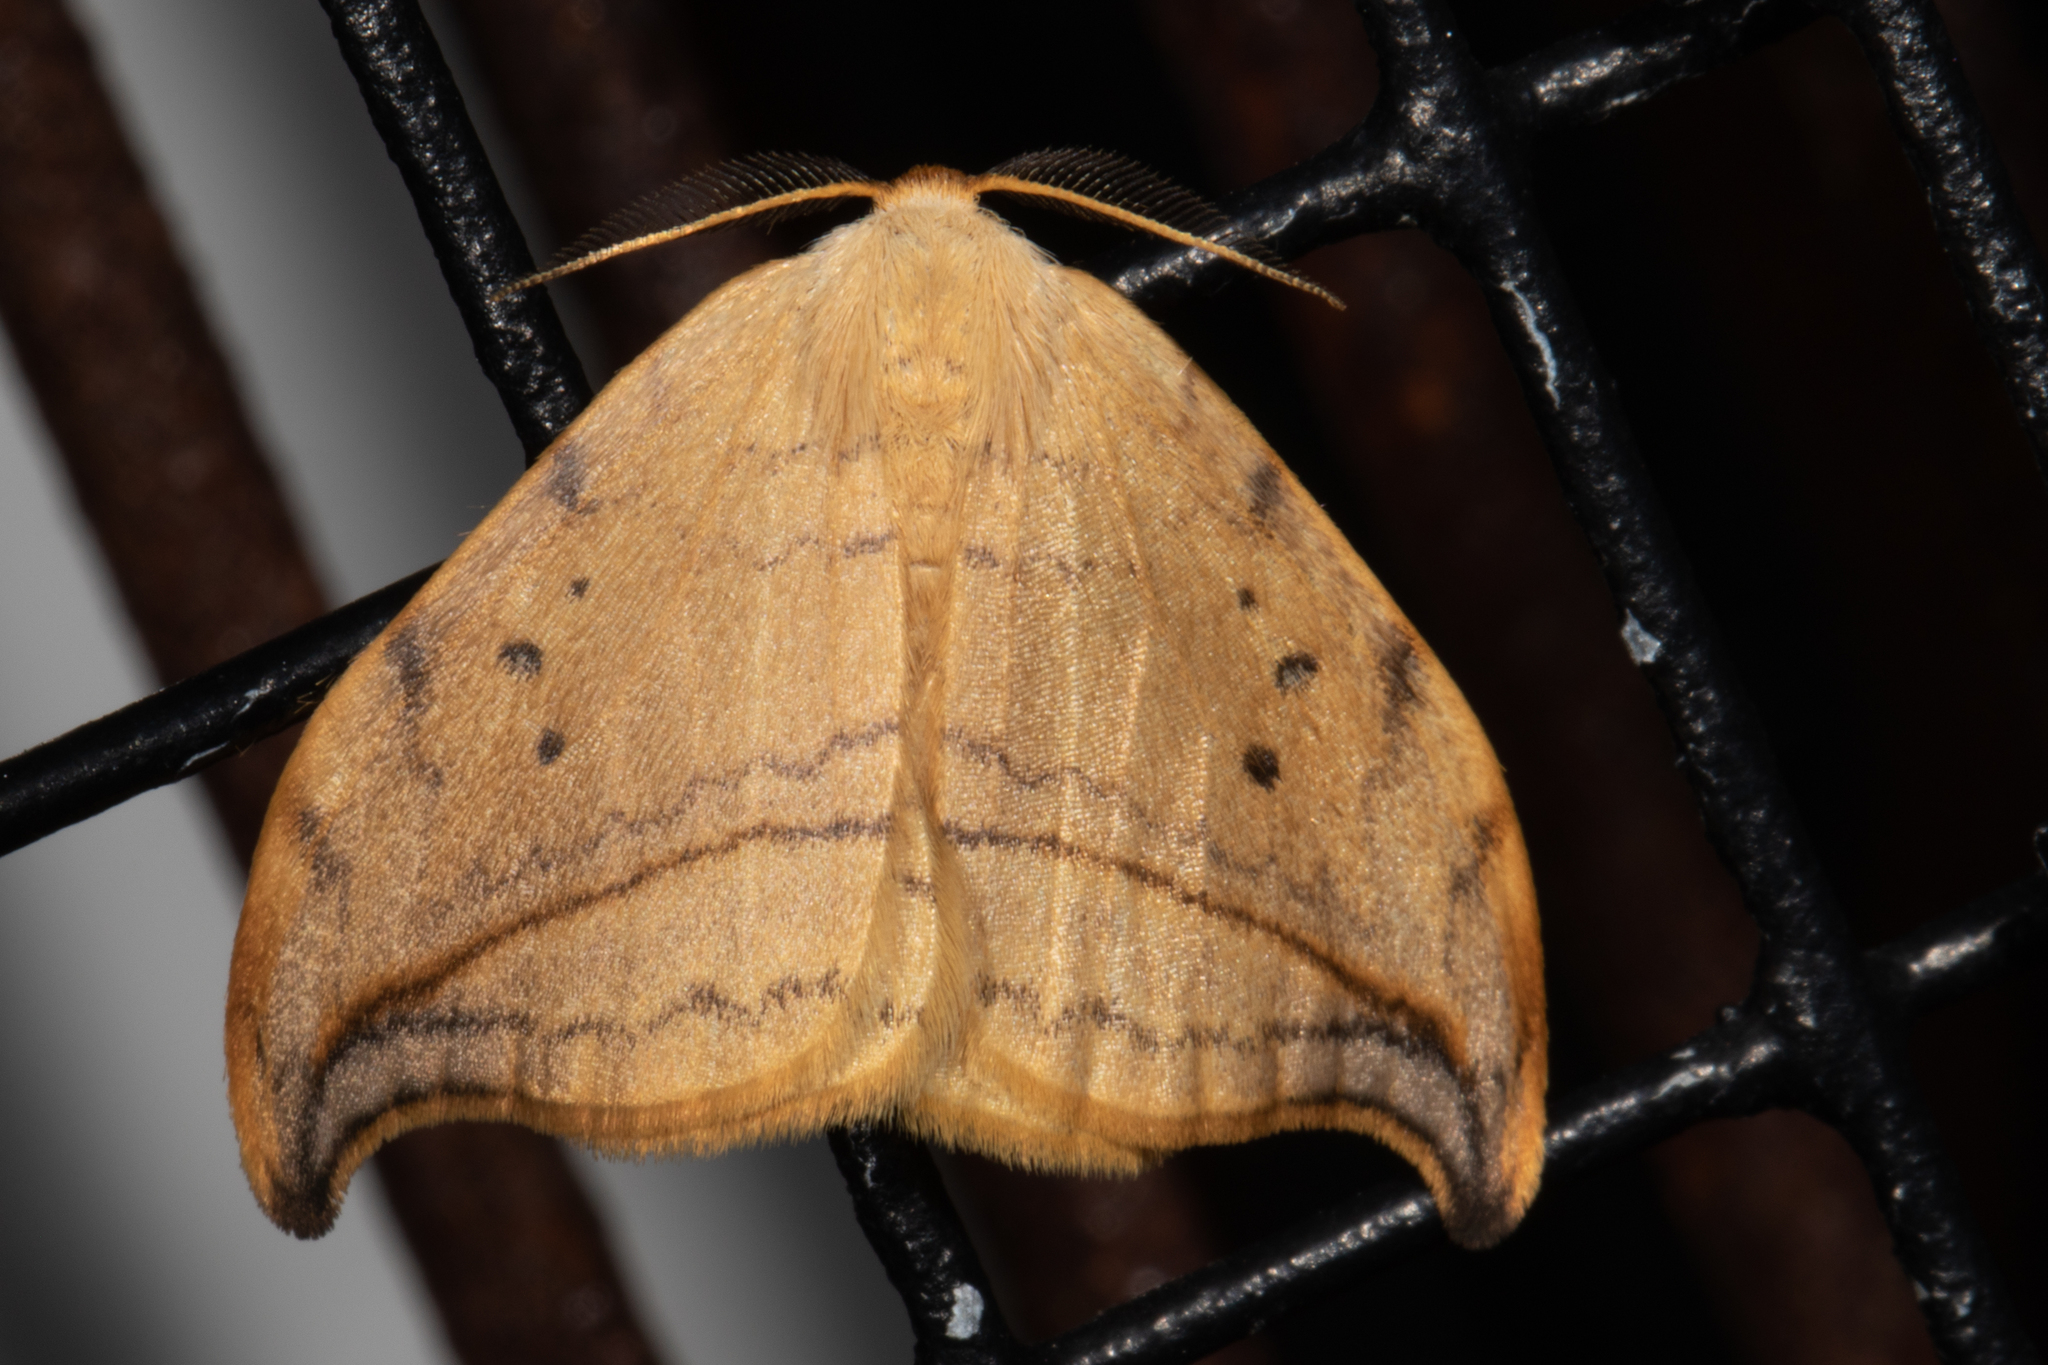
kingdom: Animalia
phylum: Arthropoda
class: Insecta
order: Lepidoptera
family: Drepanidae
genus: Drepana
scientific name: Drepana arcuata
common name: Arched hooktip moth
